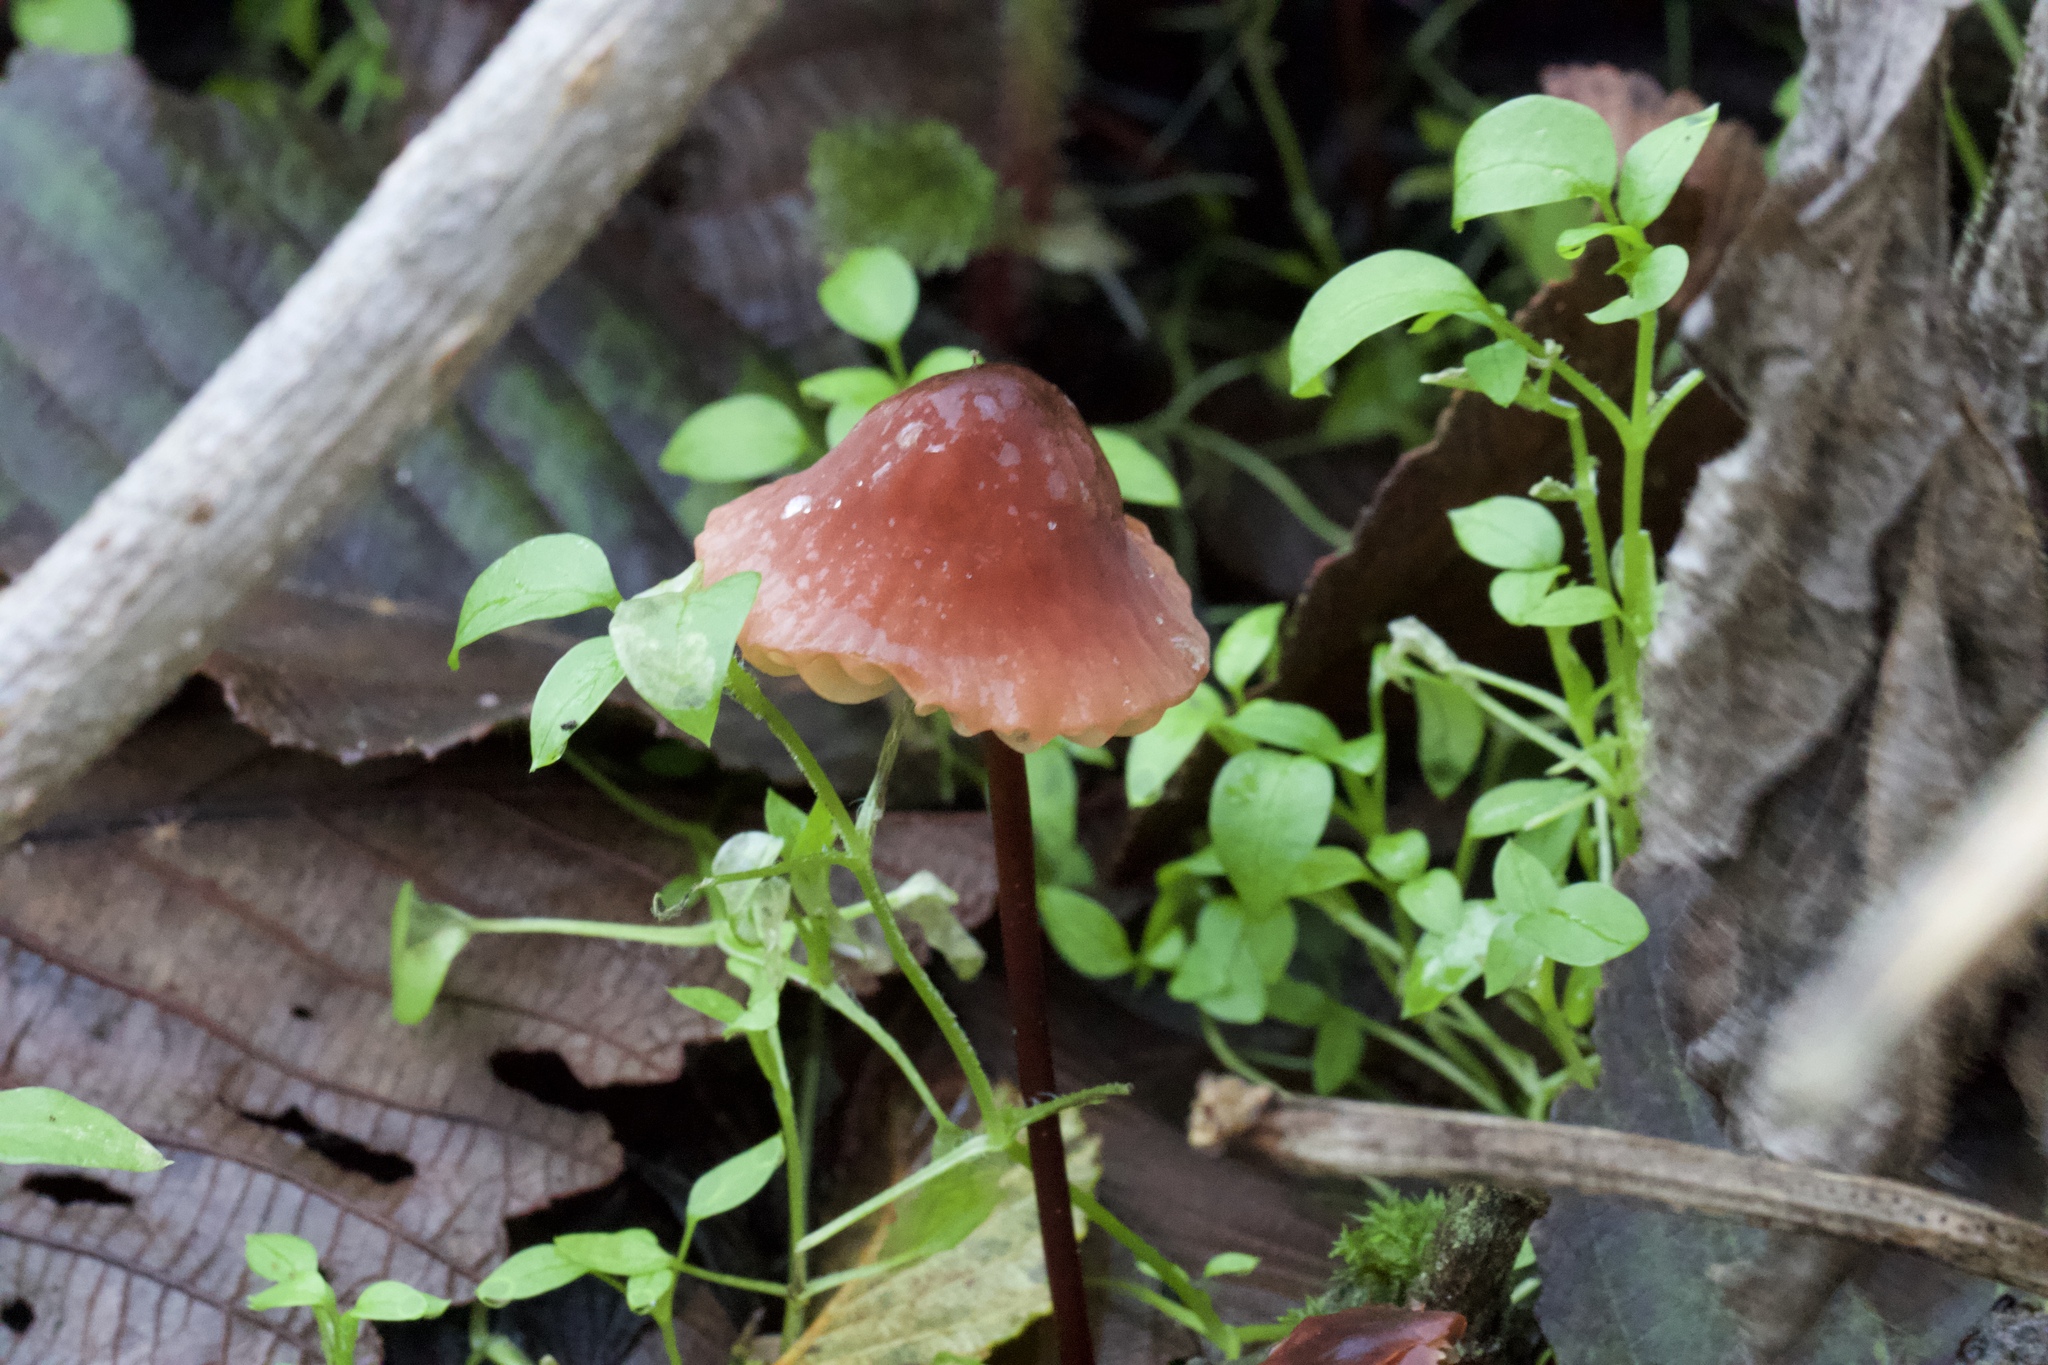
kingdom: Fungi
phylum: Basidiomycota
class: Agaricomycetes
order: Agaricales
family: Marasmiaceae
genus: Marasmius
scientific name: Marasmius plicatulus
